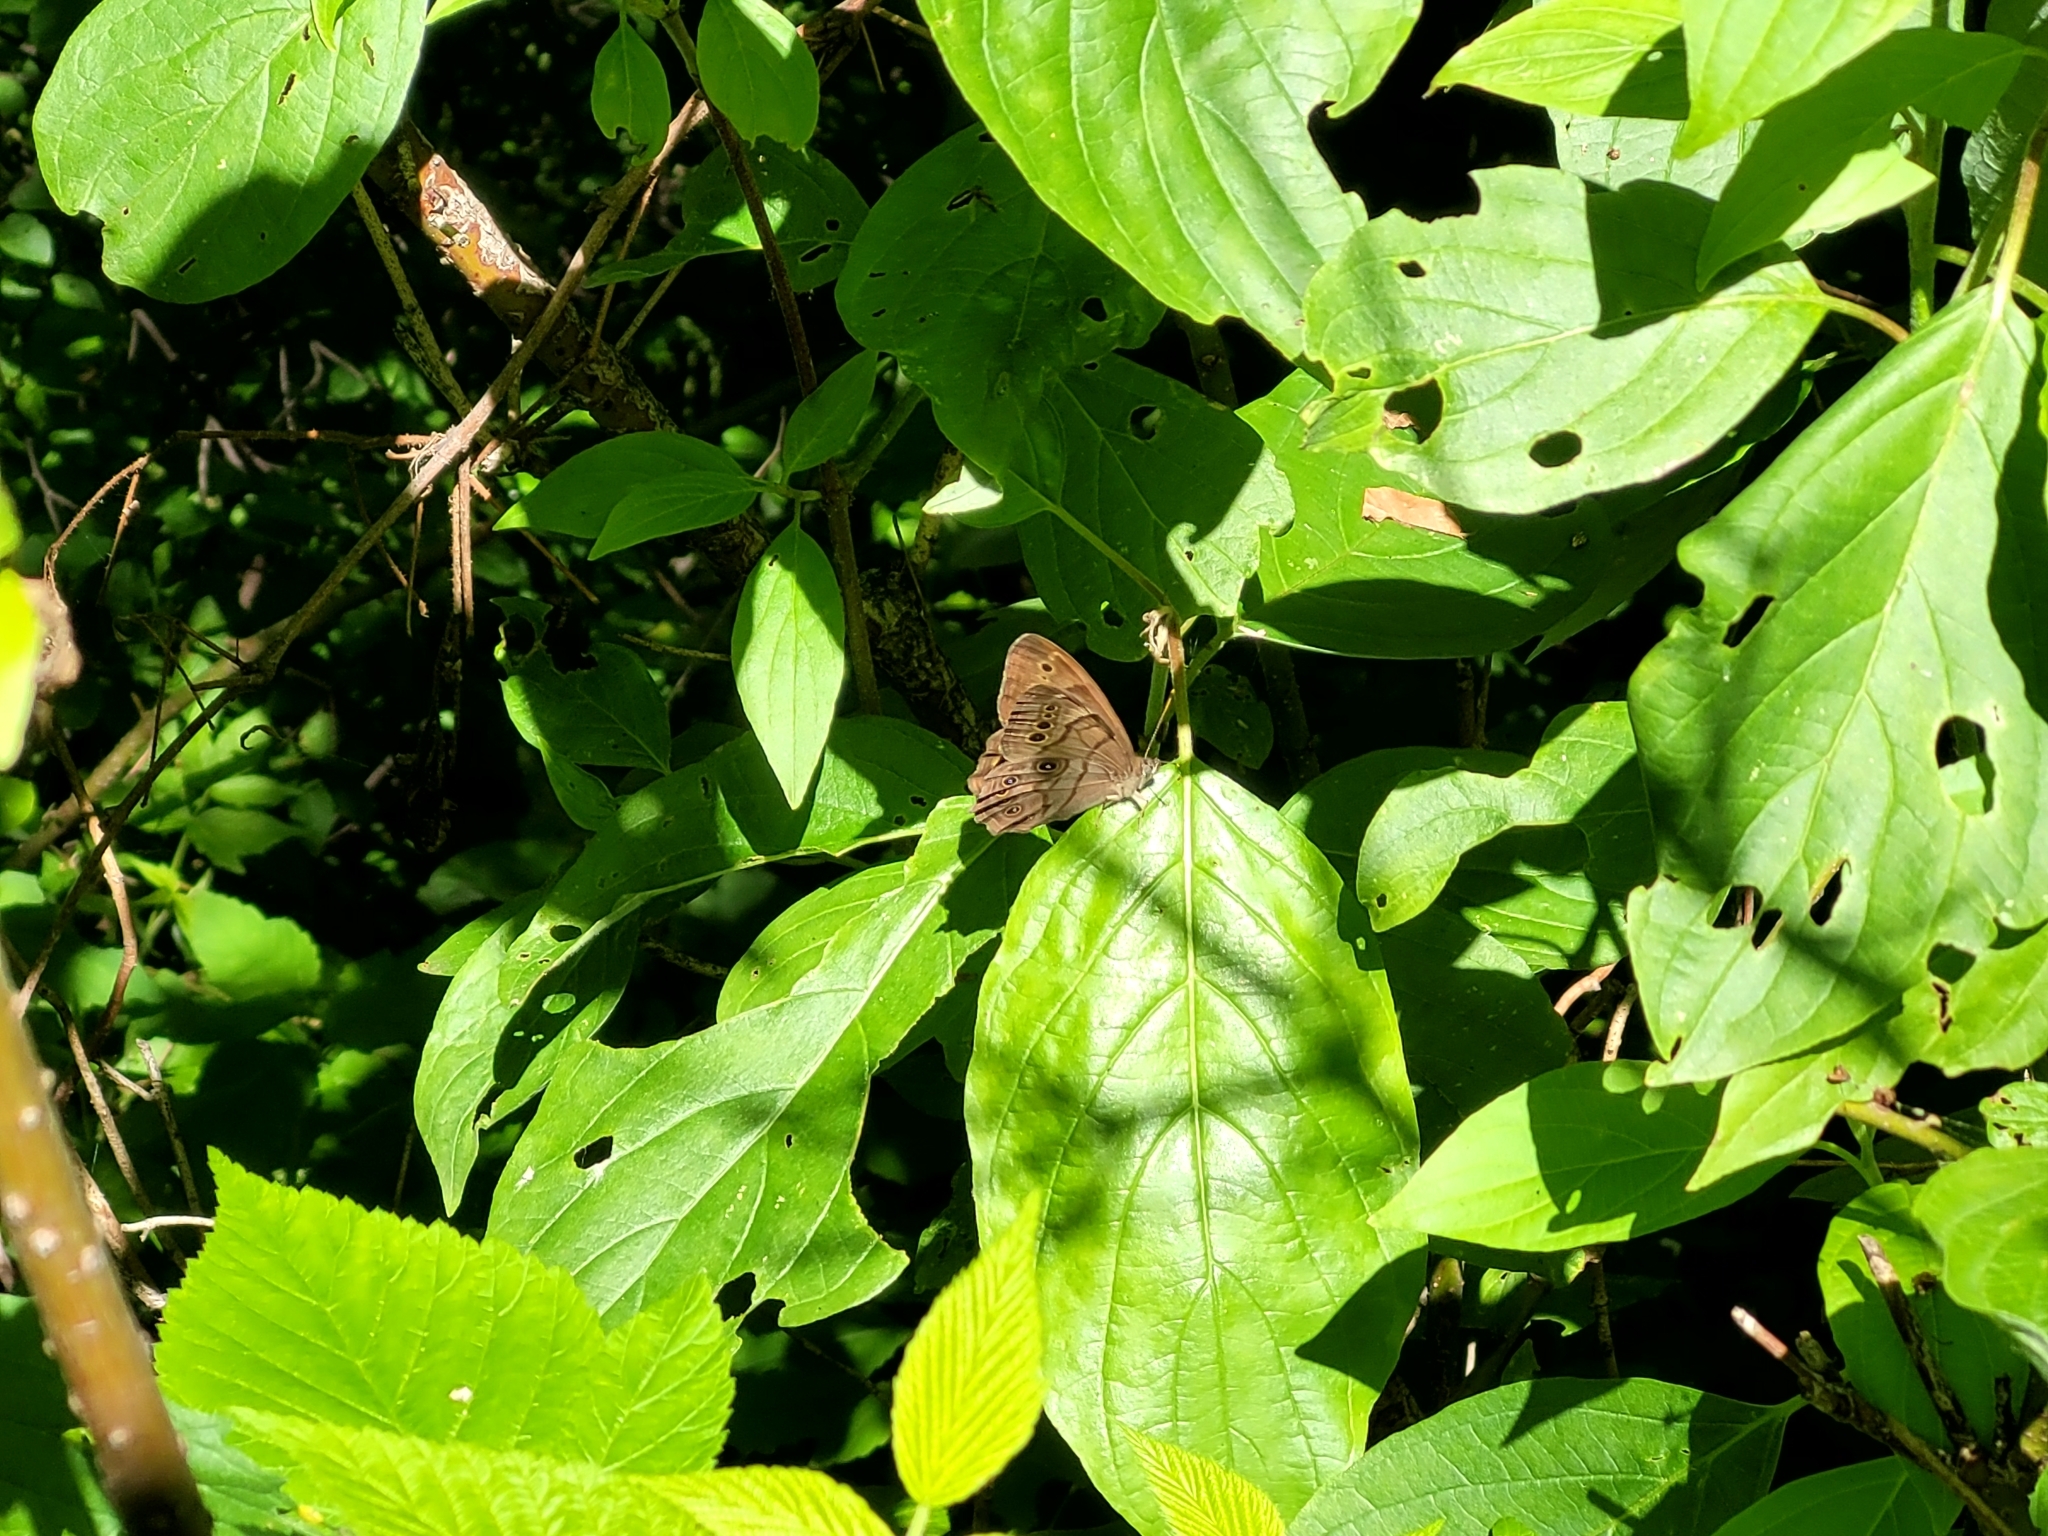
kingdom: Animalia
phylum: Arthropoda
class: Insecta
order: Lepidoptera
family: Nymphalidae
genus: Lethe
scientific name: Lethe anthedon
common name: Northern pearly-eye
